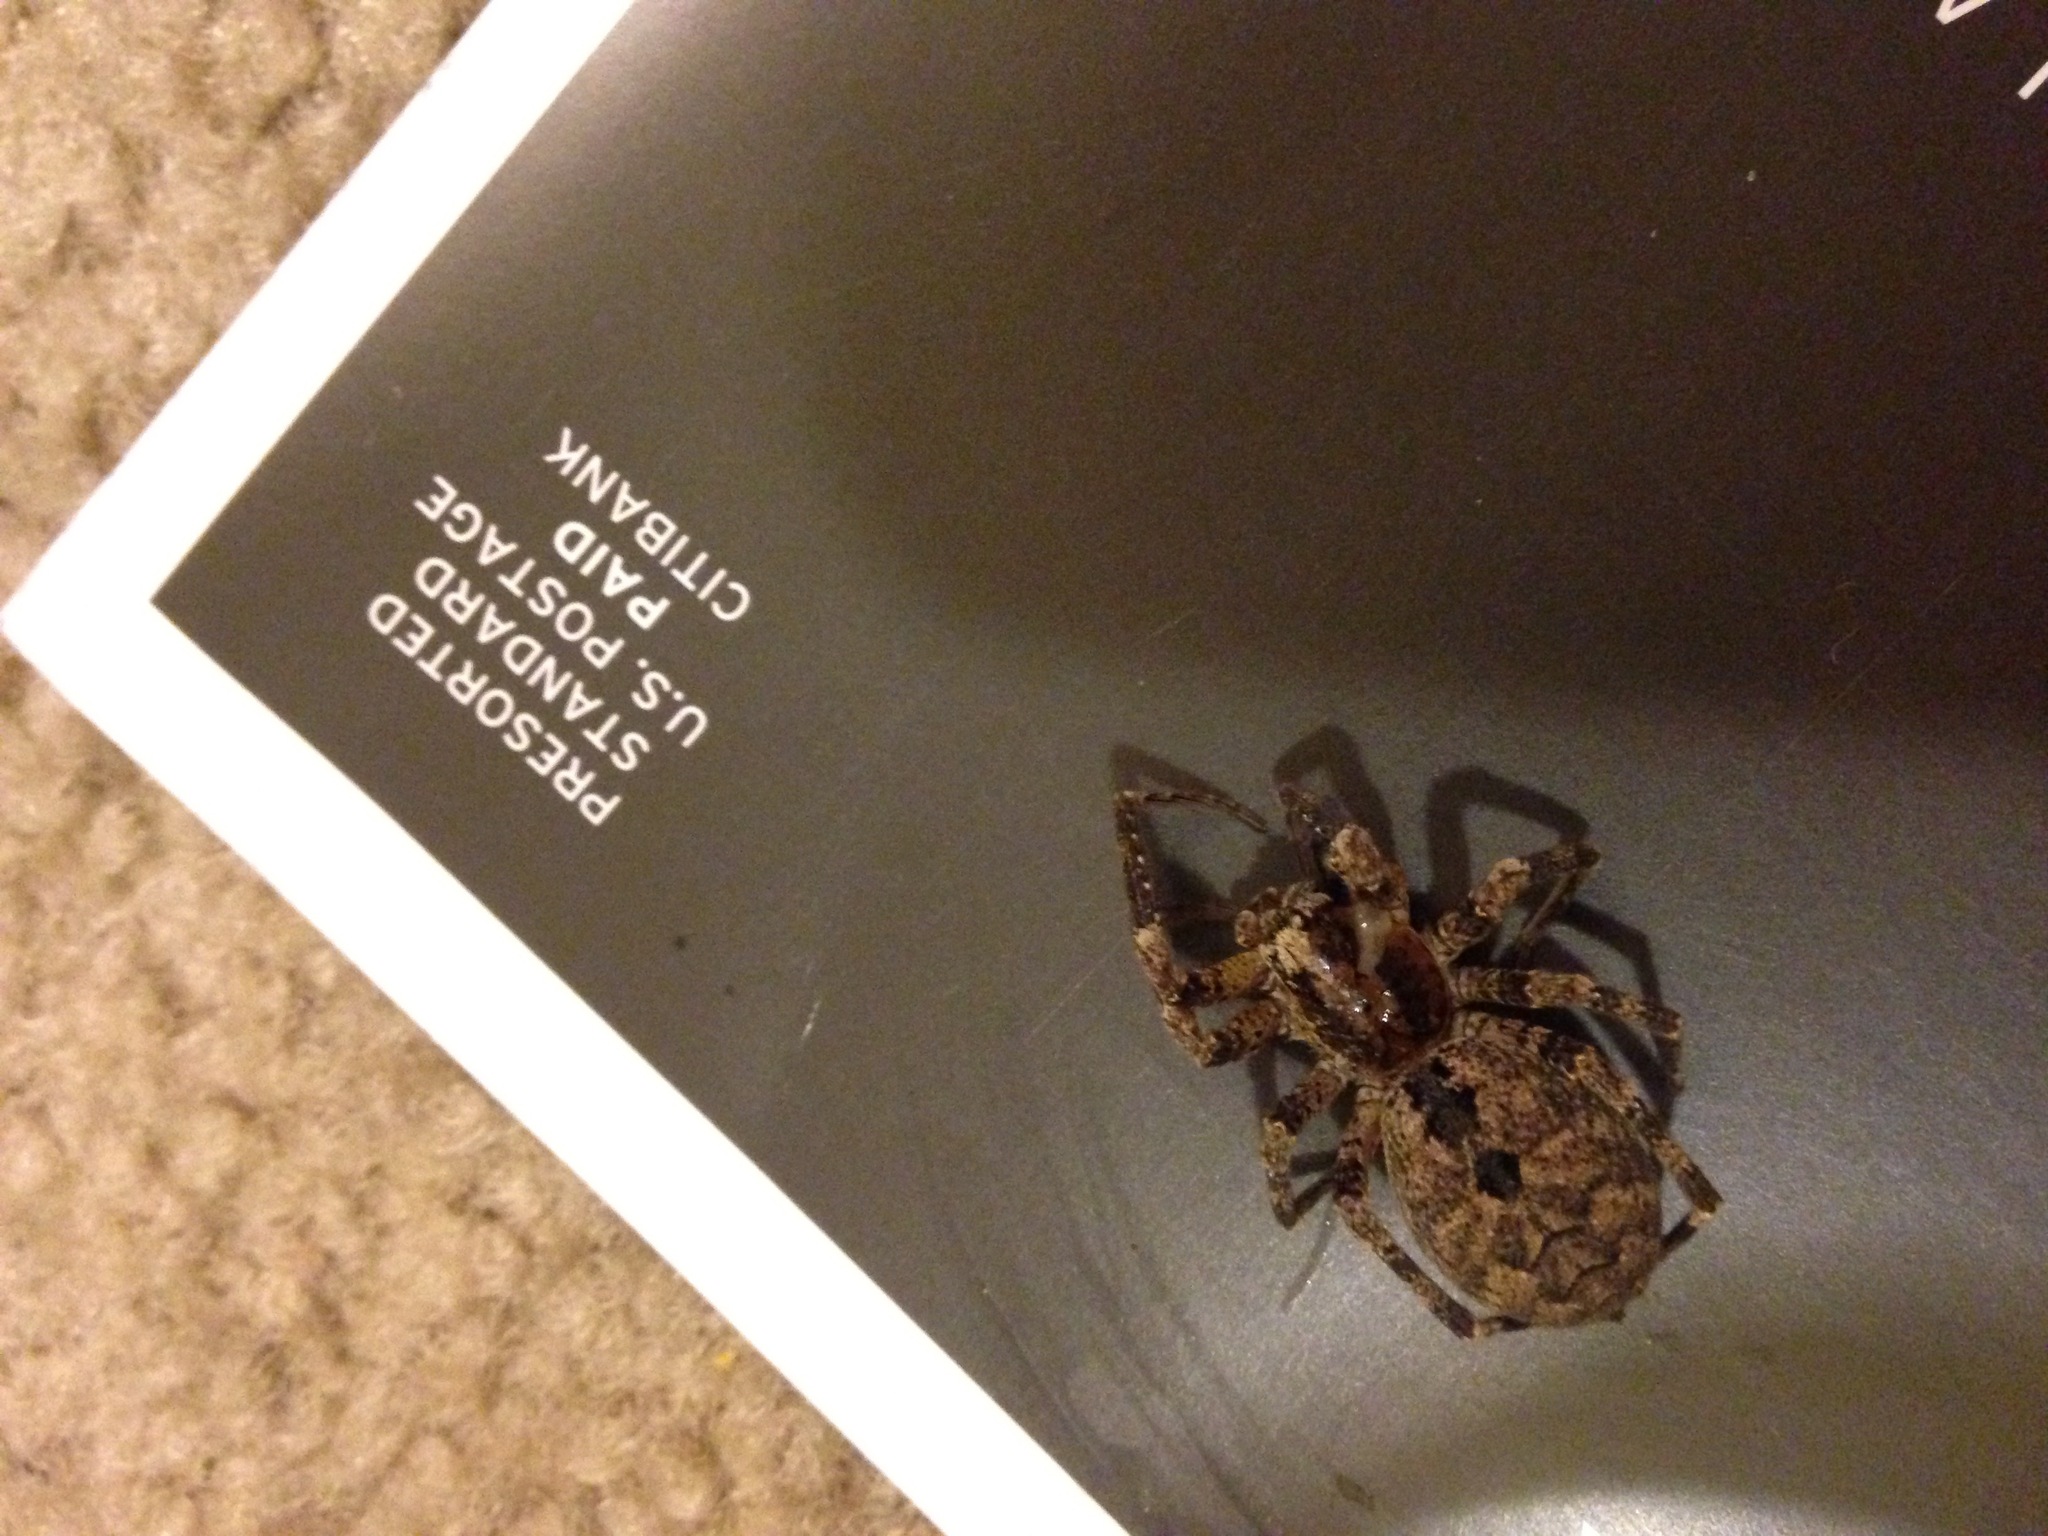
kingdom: Animalia
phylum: Arthropoda
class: Arachnida
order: Araneae
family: Zoropsidae
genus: Zoropsis
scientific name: Zoropsis spinimana
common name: Zoropsid spider
